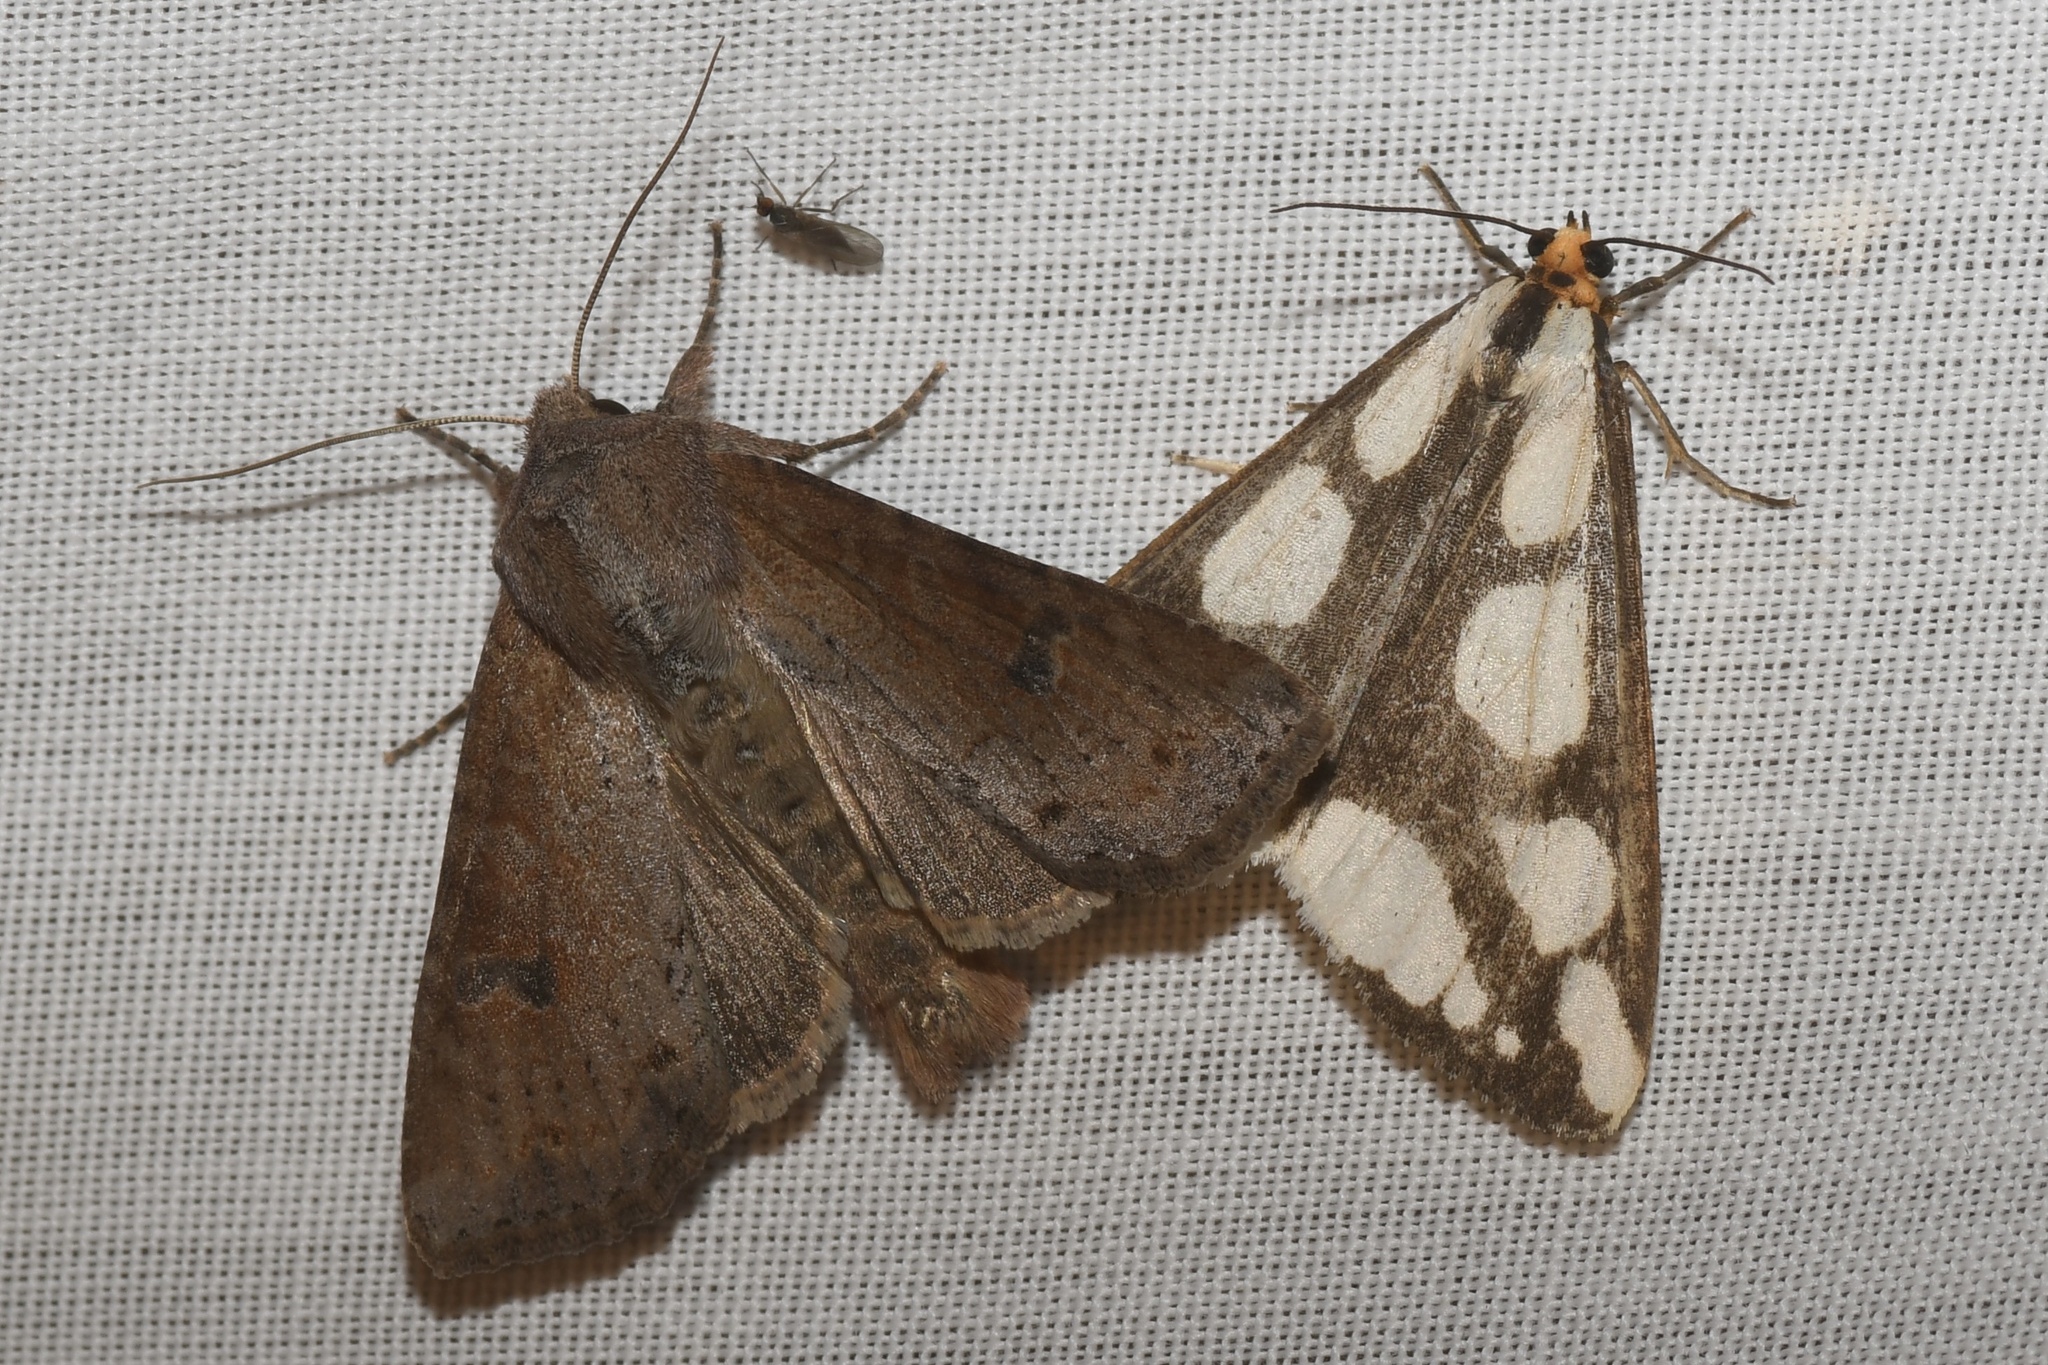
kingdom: Animalia
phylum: Arthropoda
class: Insecta
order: Lepidoptera
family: Erebidae
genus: Haploa
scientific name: Haploa lecontei
